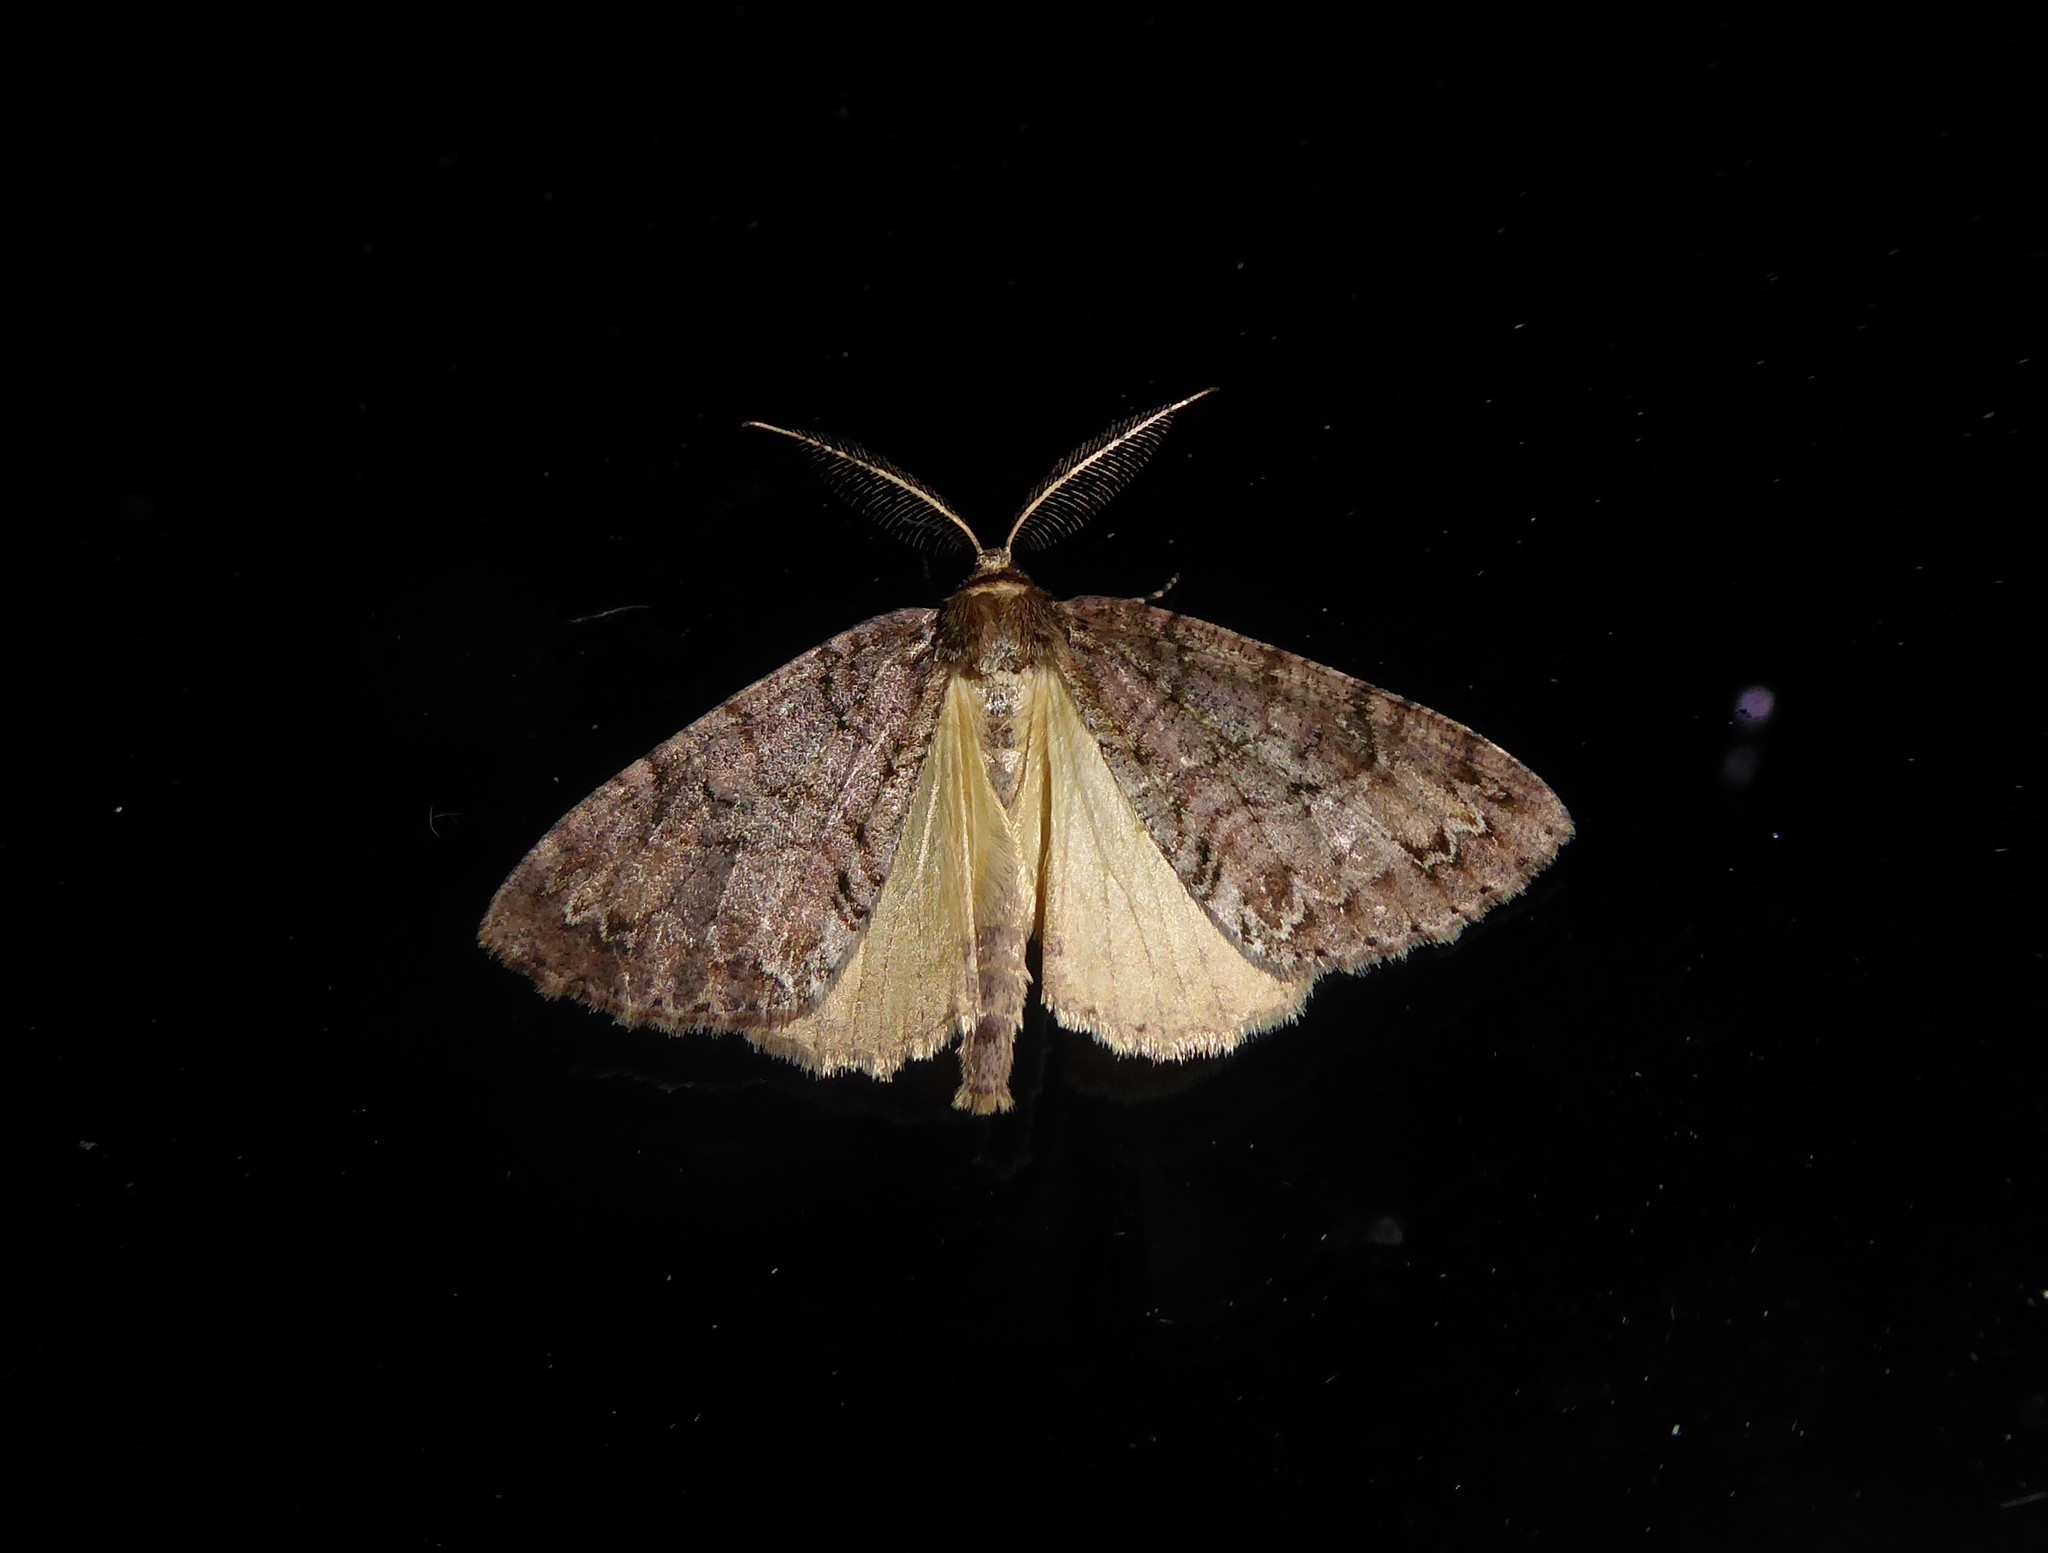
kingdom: Animalia
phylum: Arthropoda
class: Insecta
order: Lepidoptera
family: Geometridae
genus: Pseudocoremia
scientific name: Pseudocoremia suavis
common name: Common forest looper
